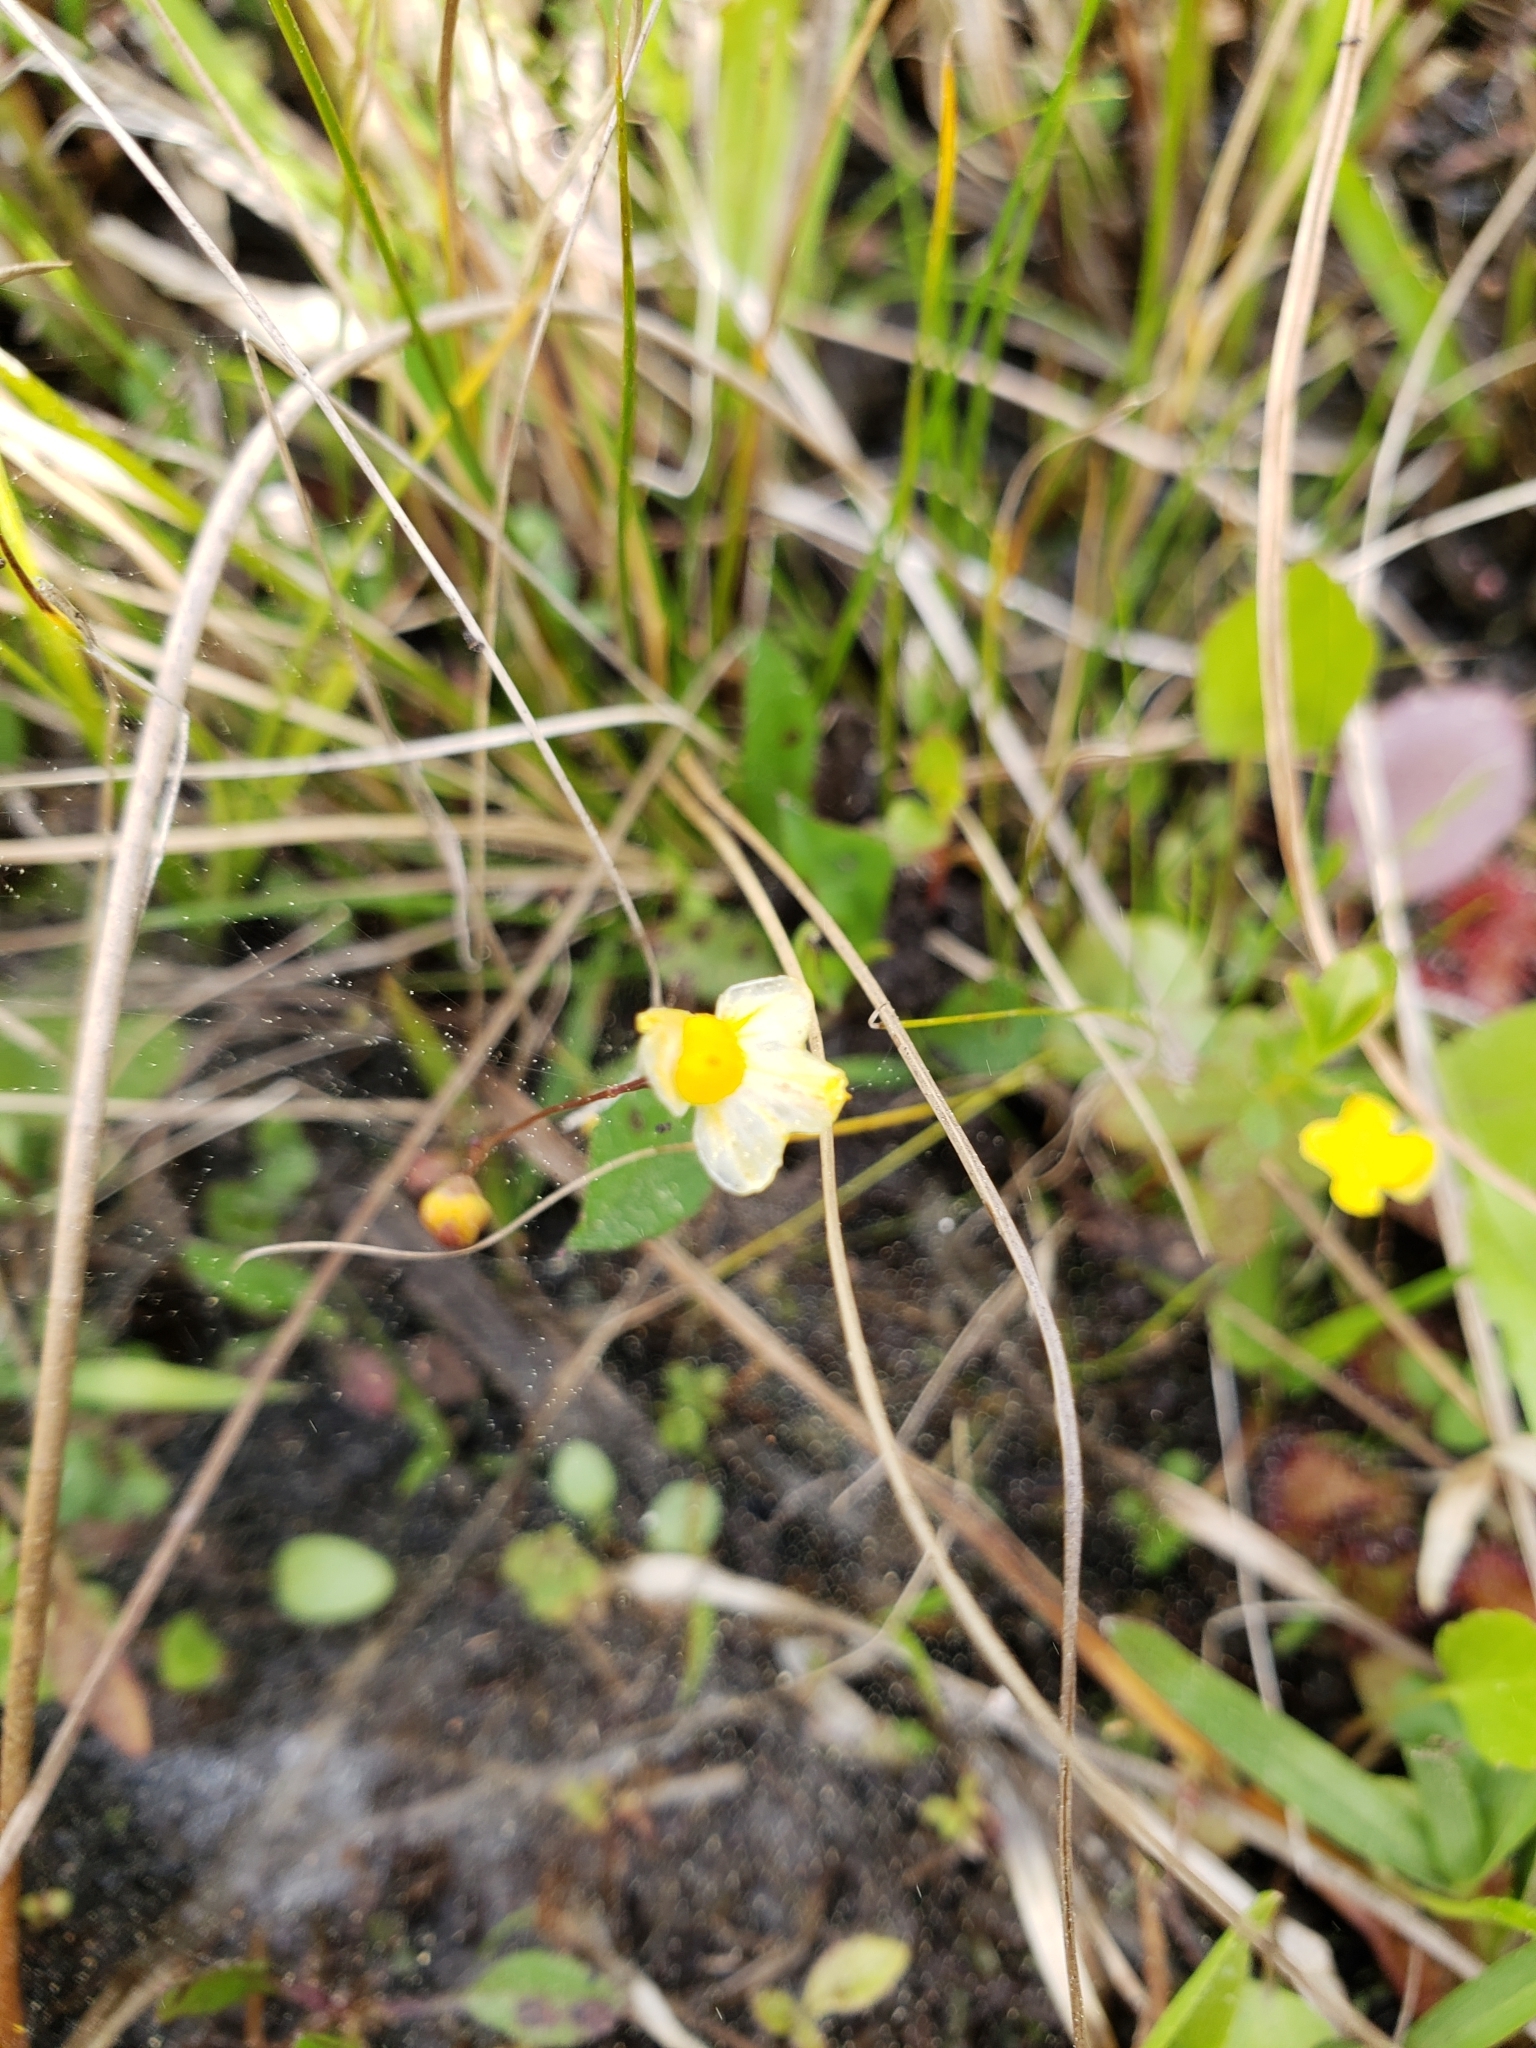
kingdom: Plantae
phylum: Tracheophyta
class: Magnoliopsida
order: Lamiales
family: Lentibulariaceae
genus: Utricularia
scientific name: Utricularia subulata
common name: Tiny bladderwort
